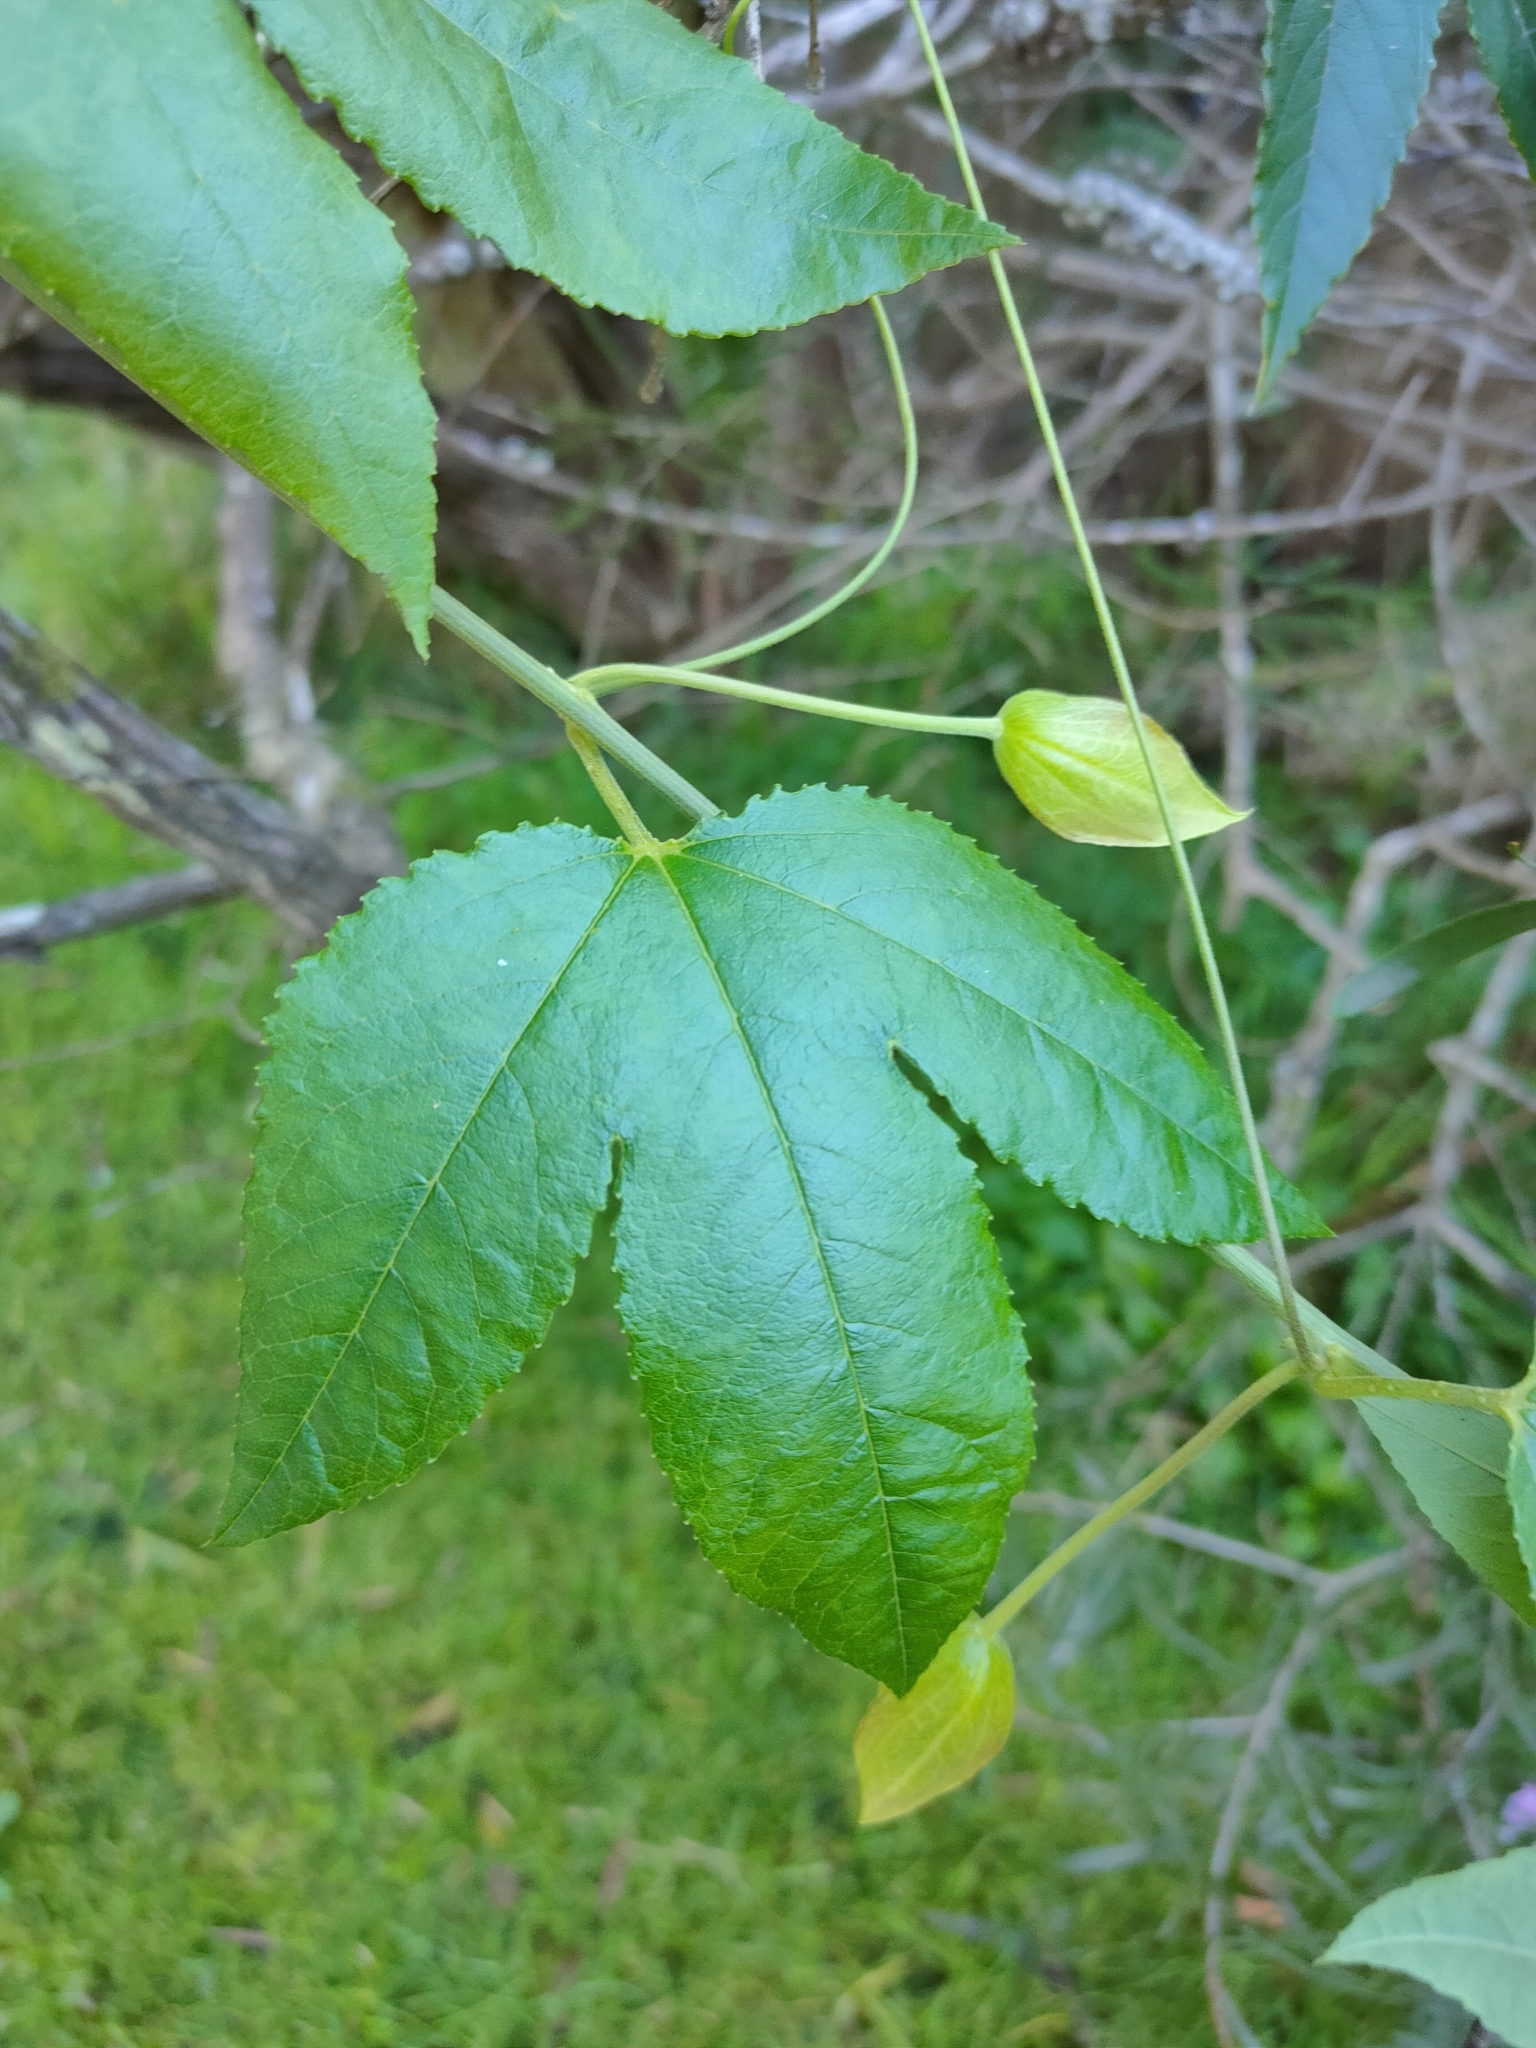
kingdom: Plantae
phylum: Tracheophyta
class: Magnoliopsida
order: Malpighiales
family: Passifloraceae
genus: Passiflora
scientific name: Passiflora tarminiana
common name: Banana poka
